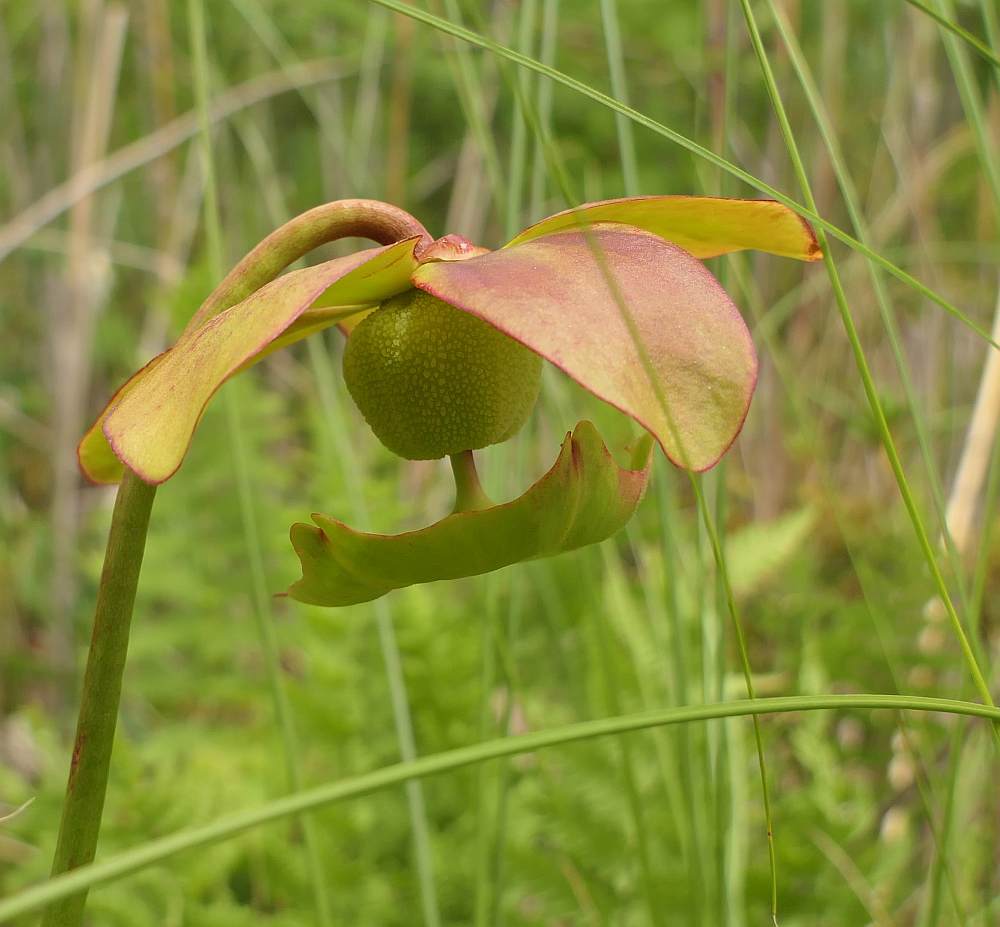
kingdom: Plantae
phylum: Tracheophyta
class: Magnoliopsida
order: Ericales
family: Sarraceniaceae
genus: Sarracenia
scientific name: Sarracenia purpurea
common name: Pitcherplant
